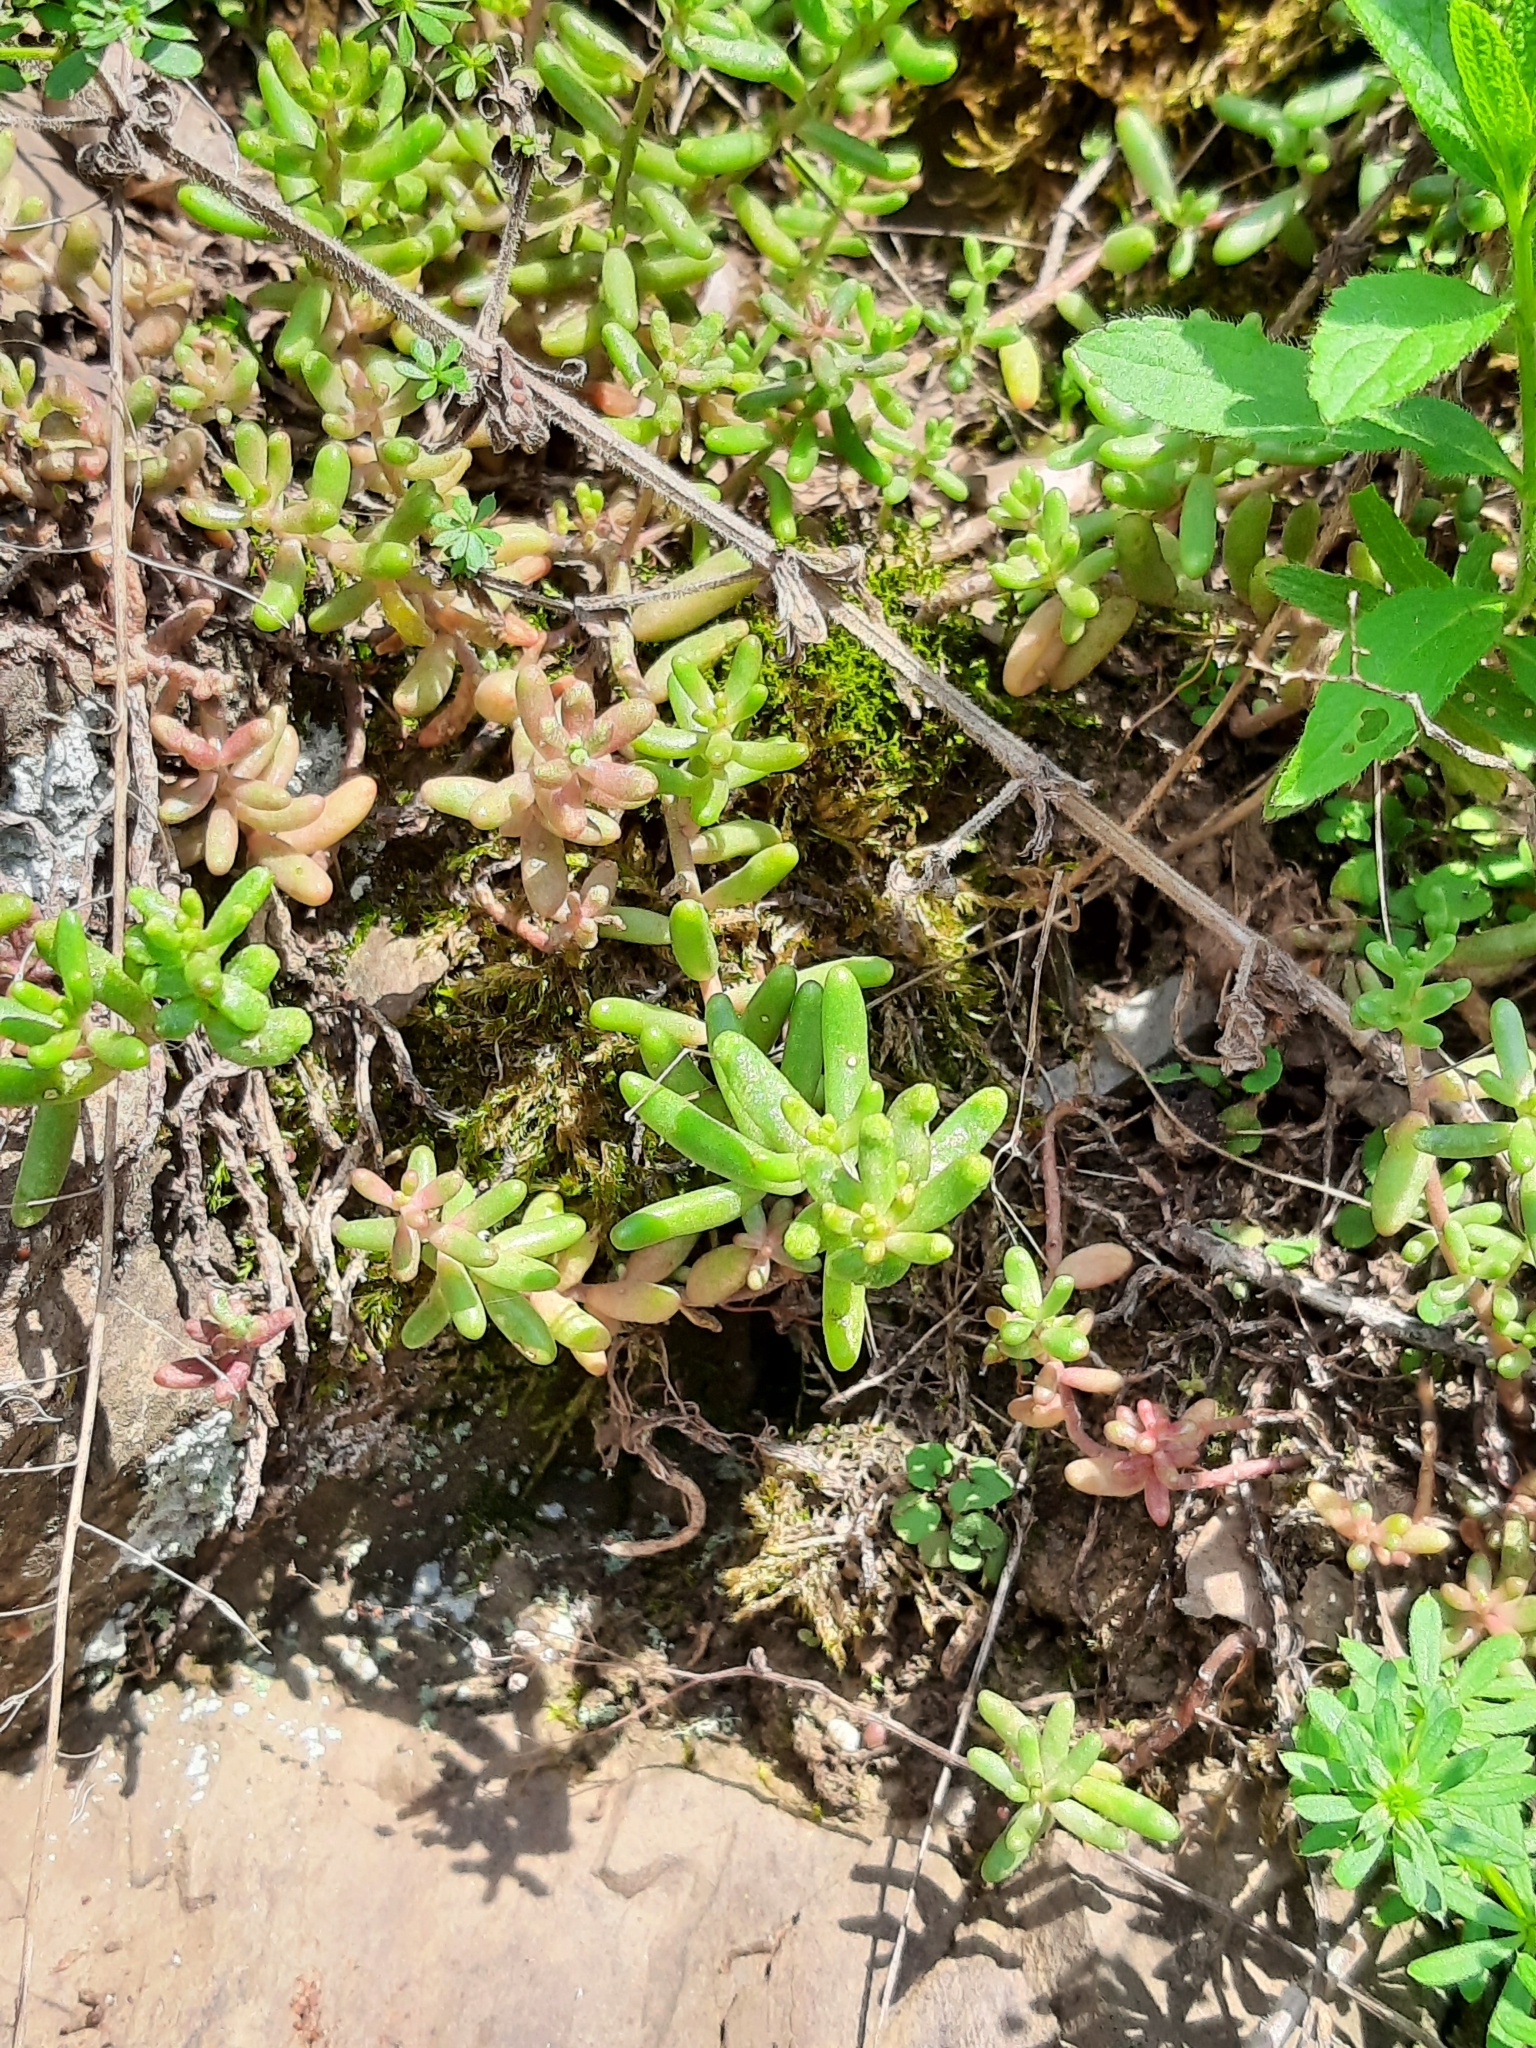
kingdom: Plantae
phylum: Tracheophyta
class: Magnoliopsida
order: Saxifragales
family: Crassulaceae
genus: Sedum
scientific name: Sedum album
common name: White stonecrop
